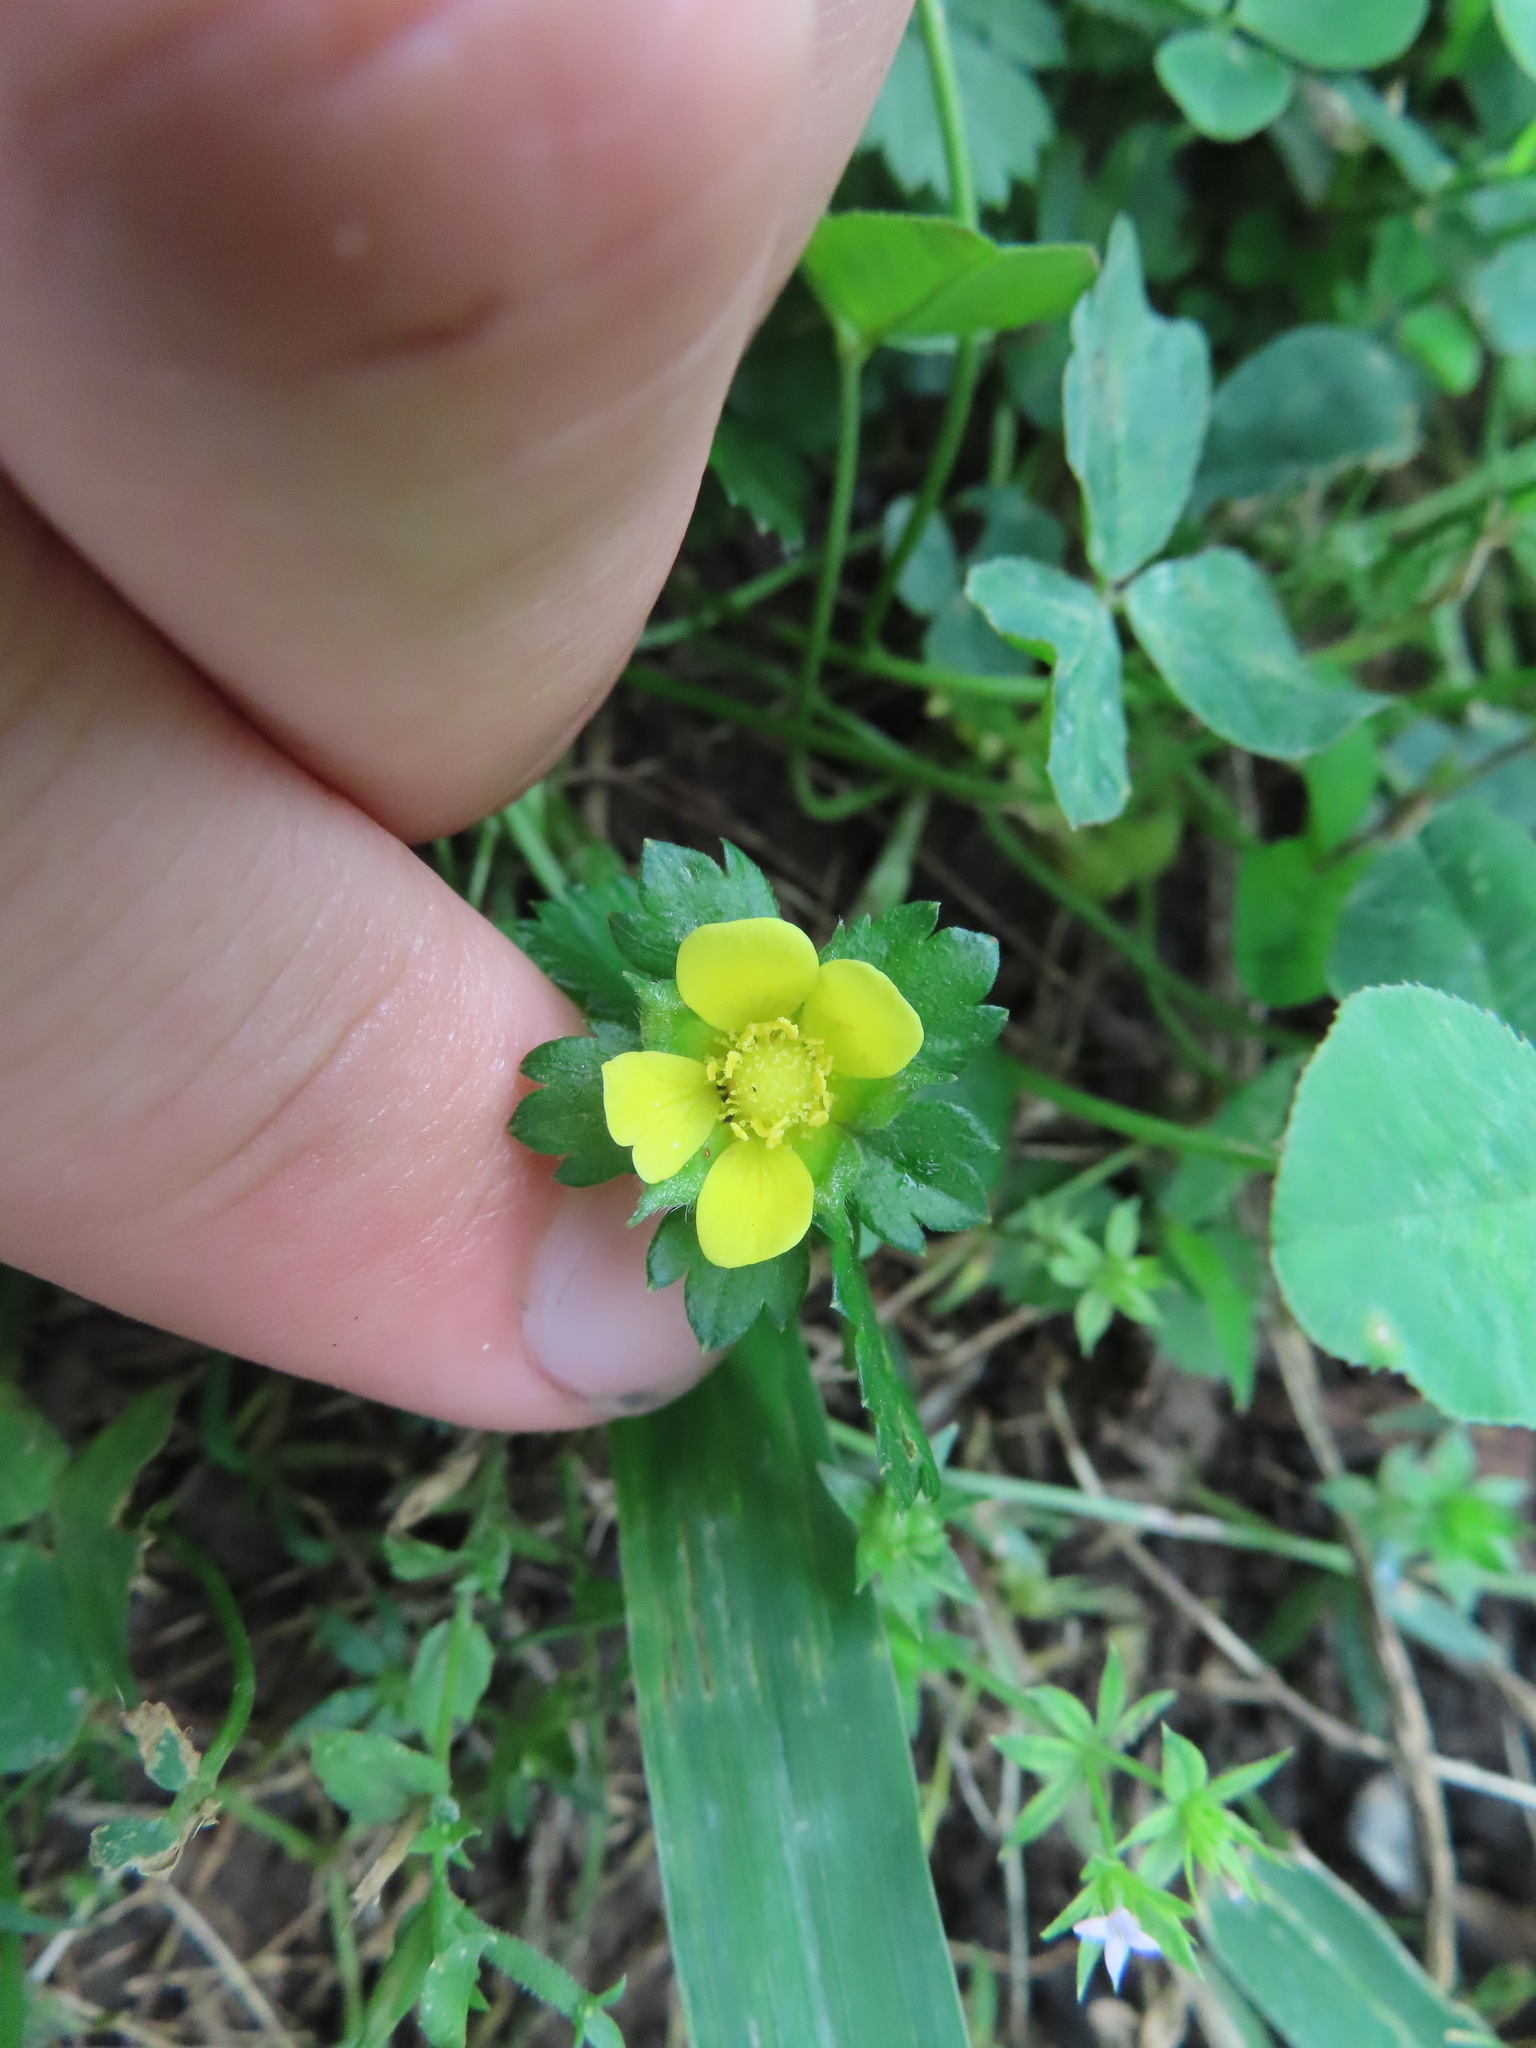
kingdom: Plantae
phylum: Tracheophyta
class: Magnoliopsida
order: Rosales
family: Rosaceae
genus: Potentilla
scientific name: Potentilla indica
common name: Yellow-flowered strawberry
